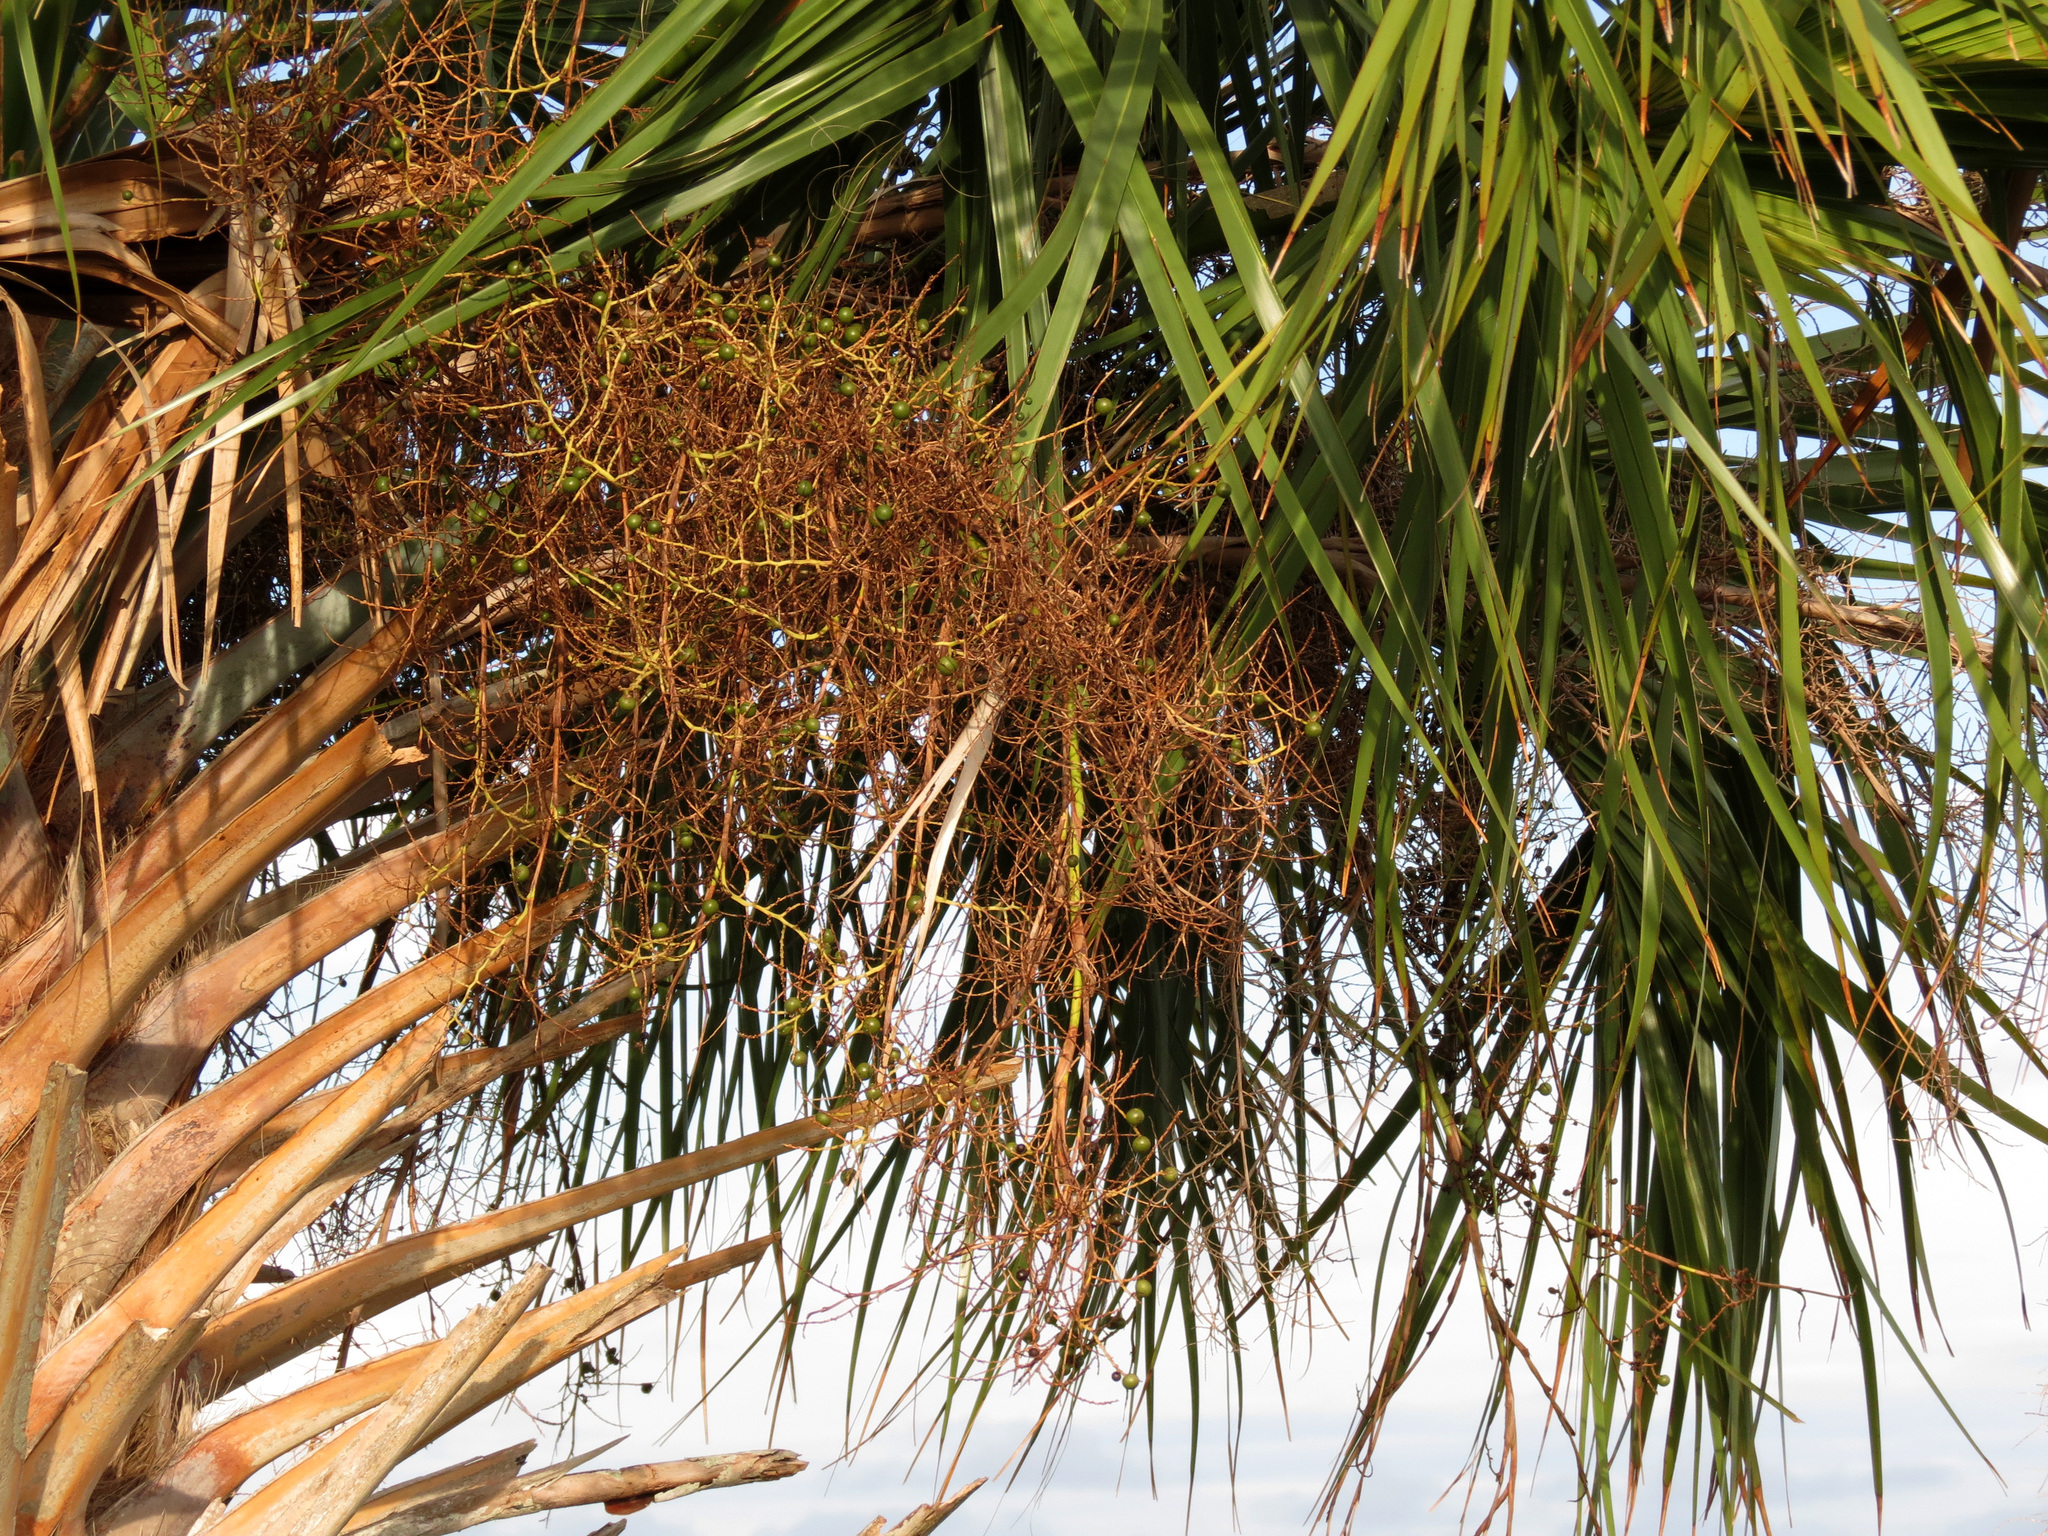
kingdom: Plantae
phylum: Tracheophyta
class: Liliopsida
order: Arecales
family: Arecaceae
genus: Sabal
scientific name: Sabal palmetto
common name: Blue palmetto
